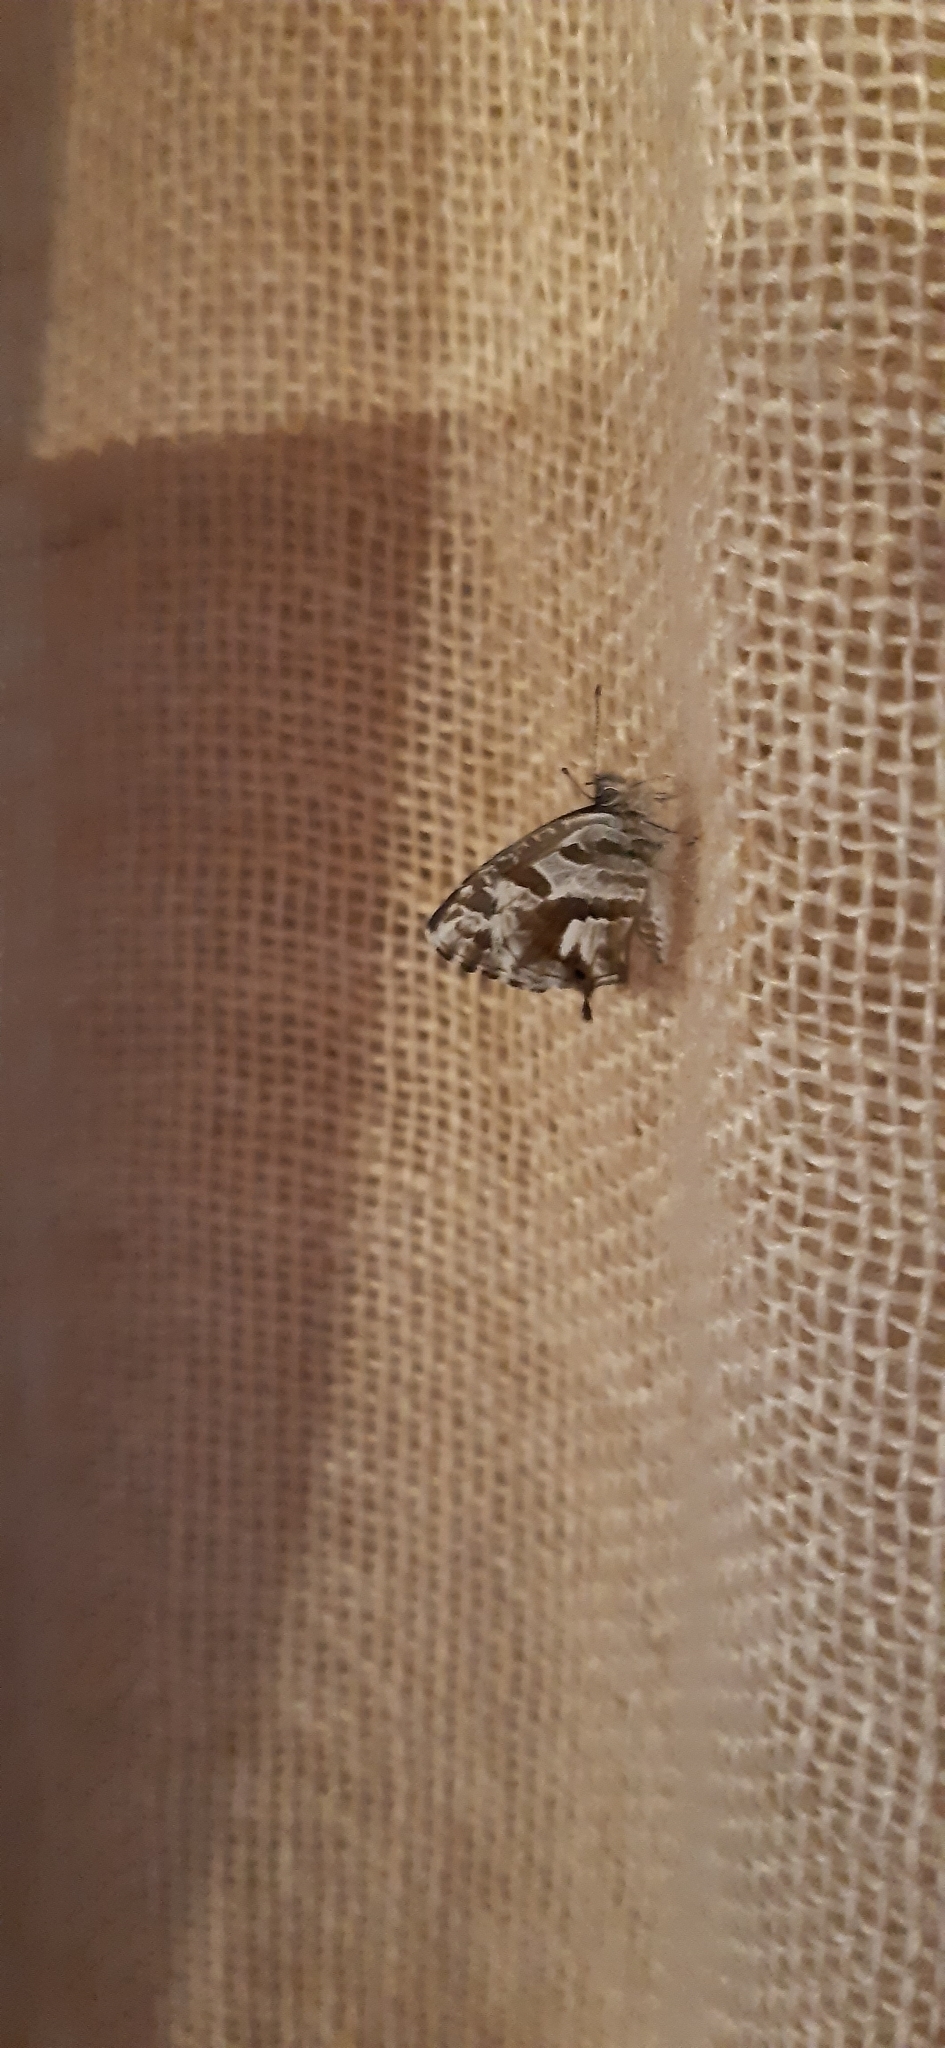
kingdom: Animalia
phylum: Arthropoda
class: Insecta
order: Lepidoptera
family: Lycaenidae
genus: Cacyreus
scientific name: Cacyreus marshalli
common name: Geranium bronze
